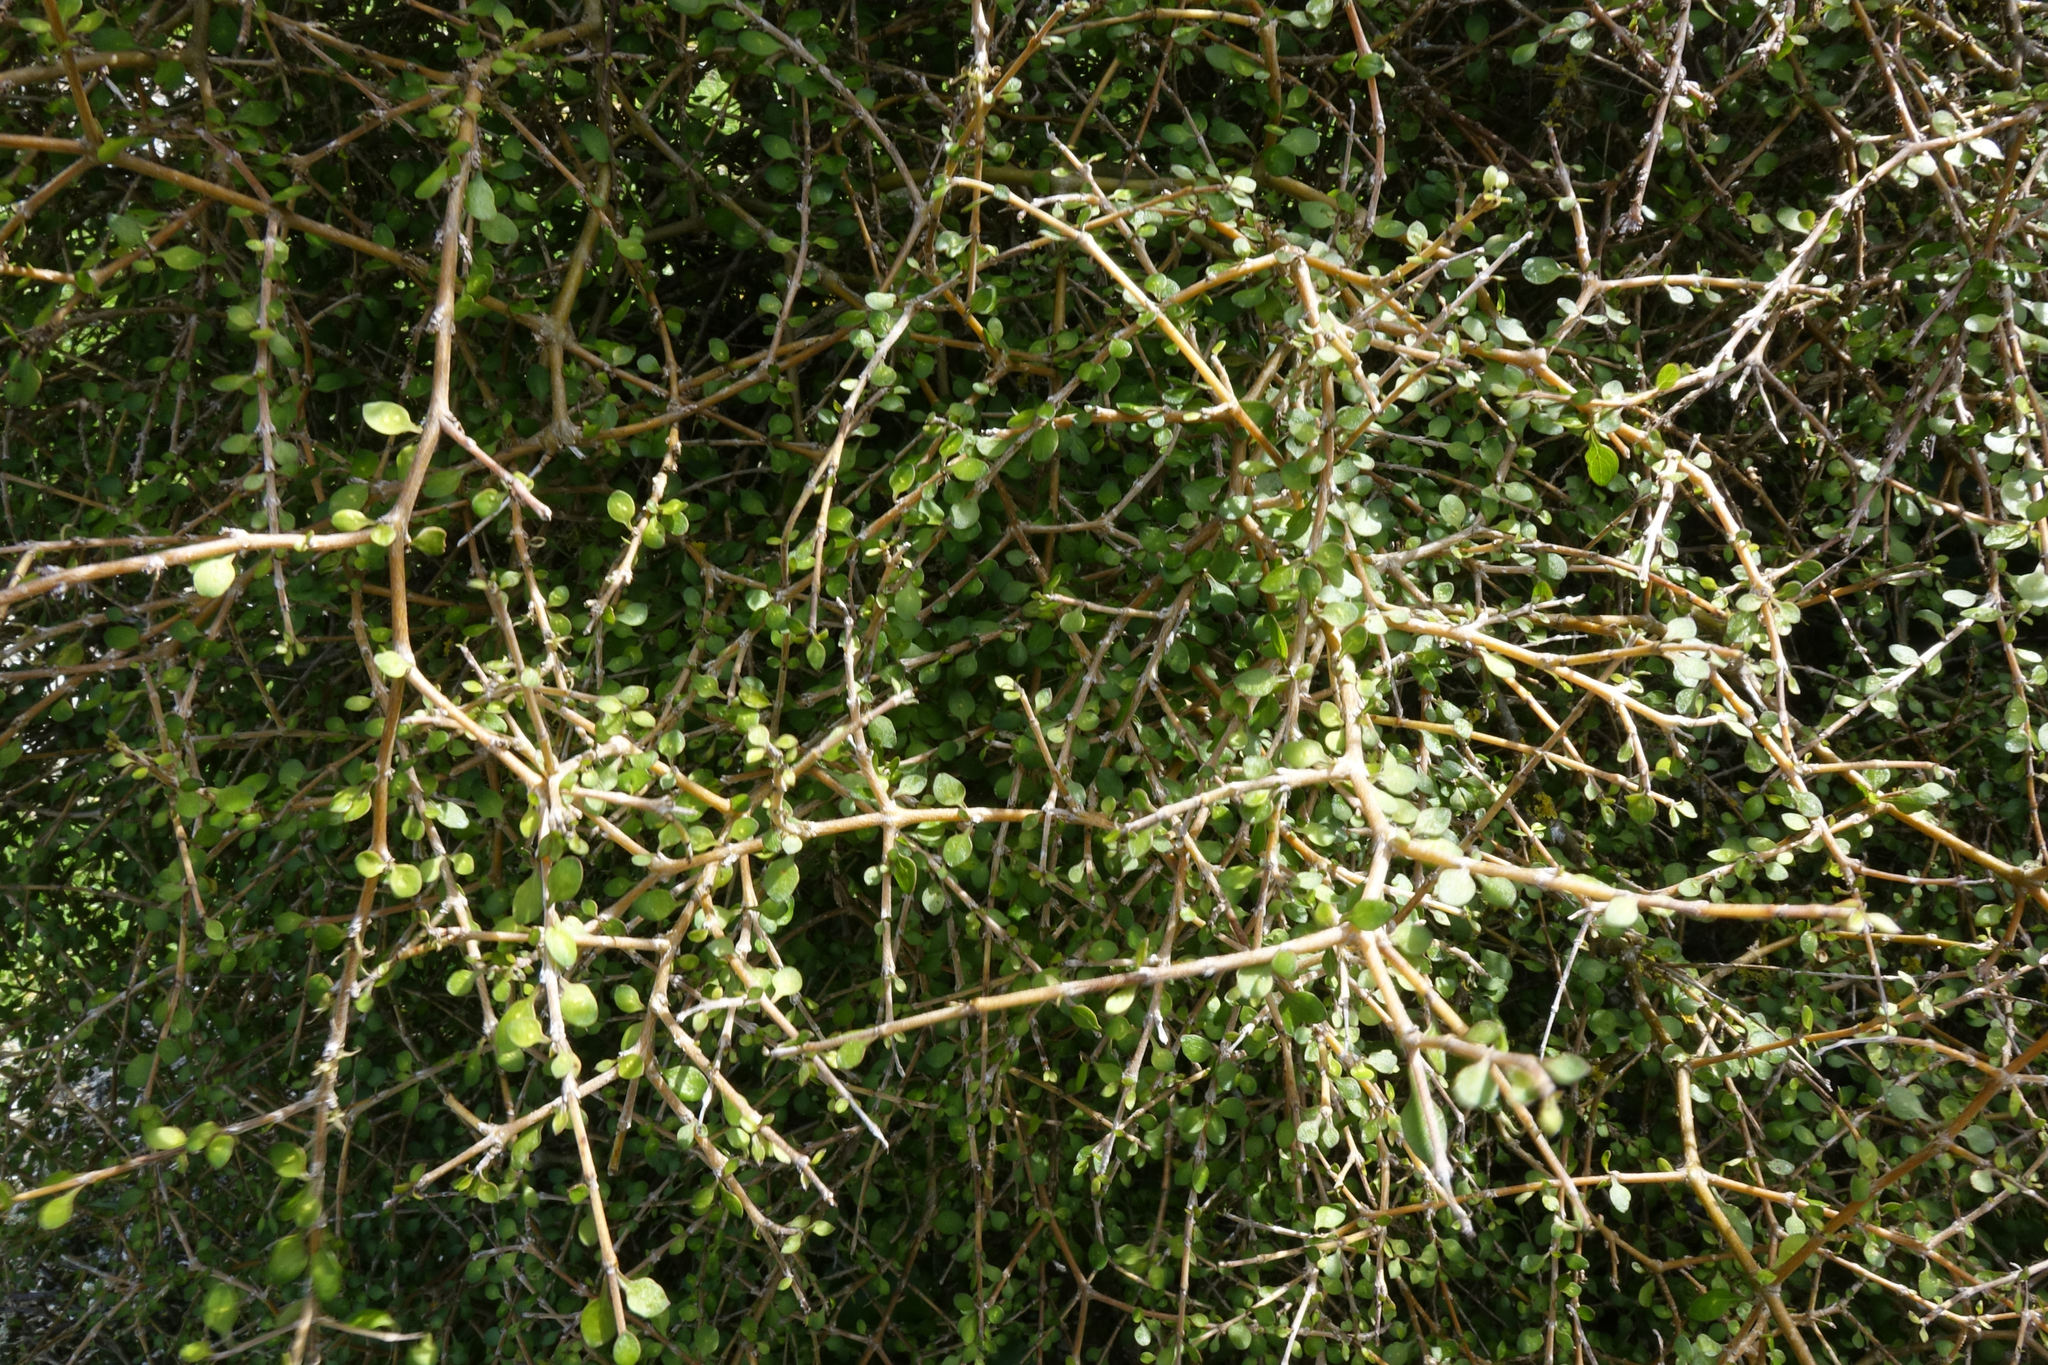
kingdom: Plantae
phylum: Tracheophyta
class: Magnoliopsida
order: Gentianales
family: Rubiaceae
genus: Coprosma
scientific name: Coprosma virescens
